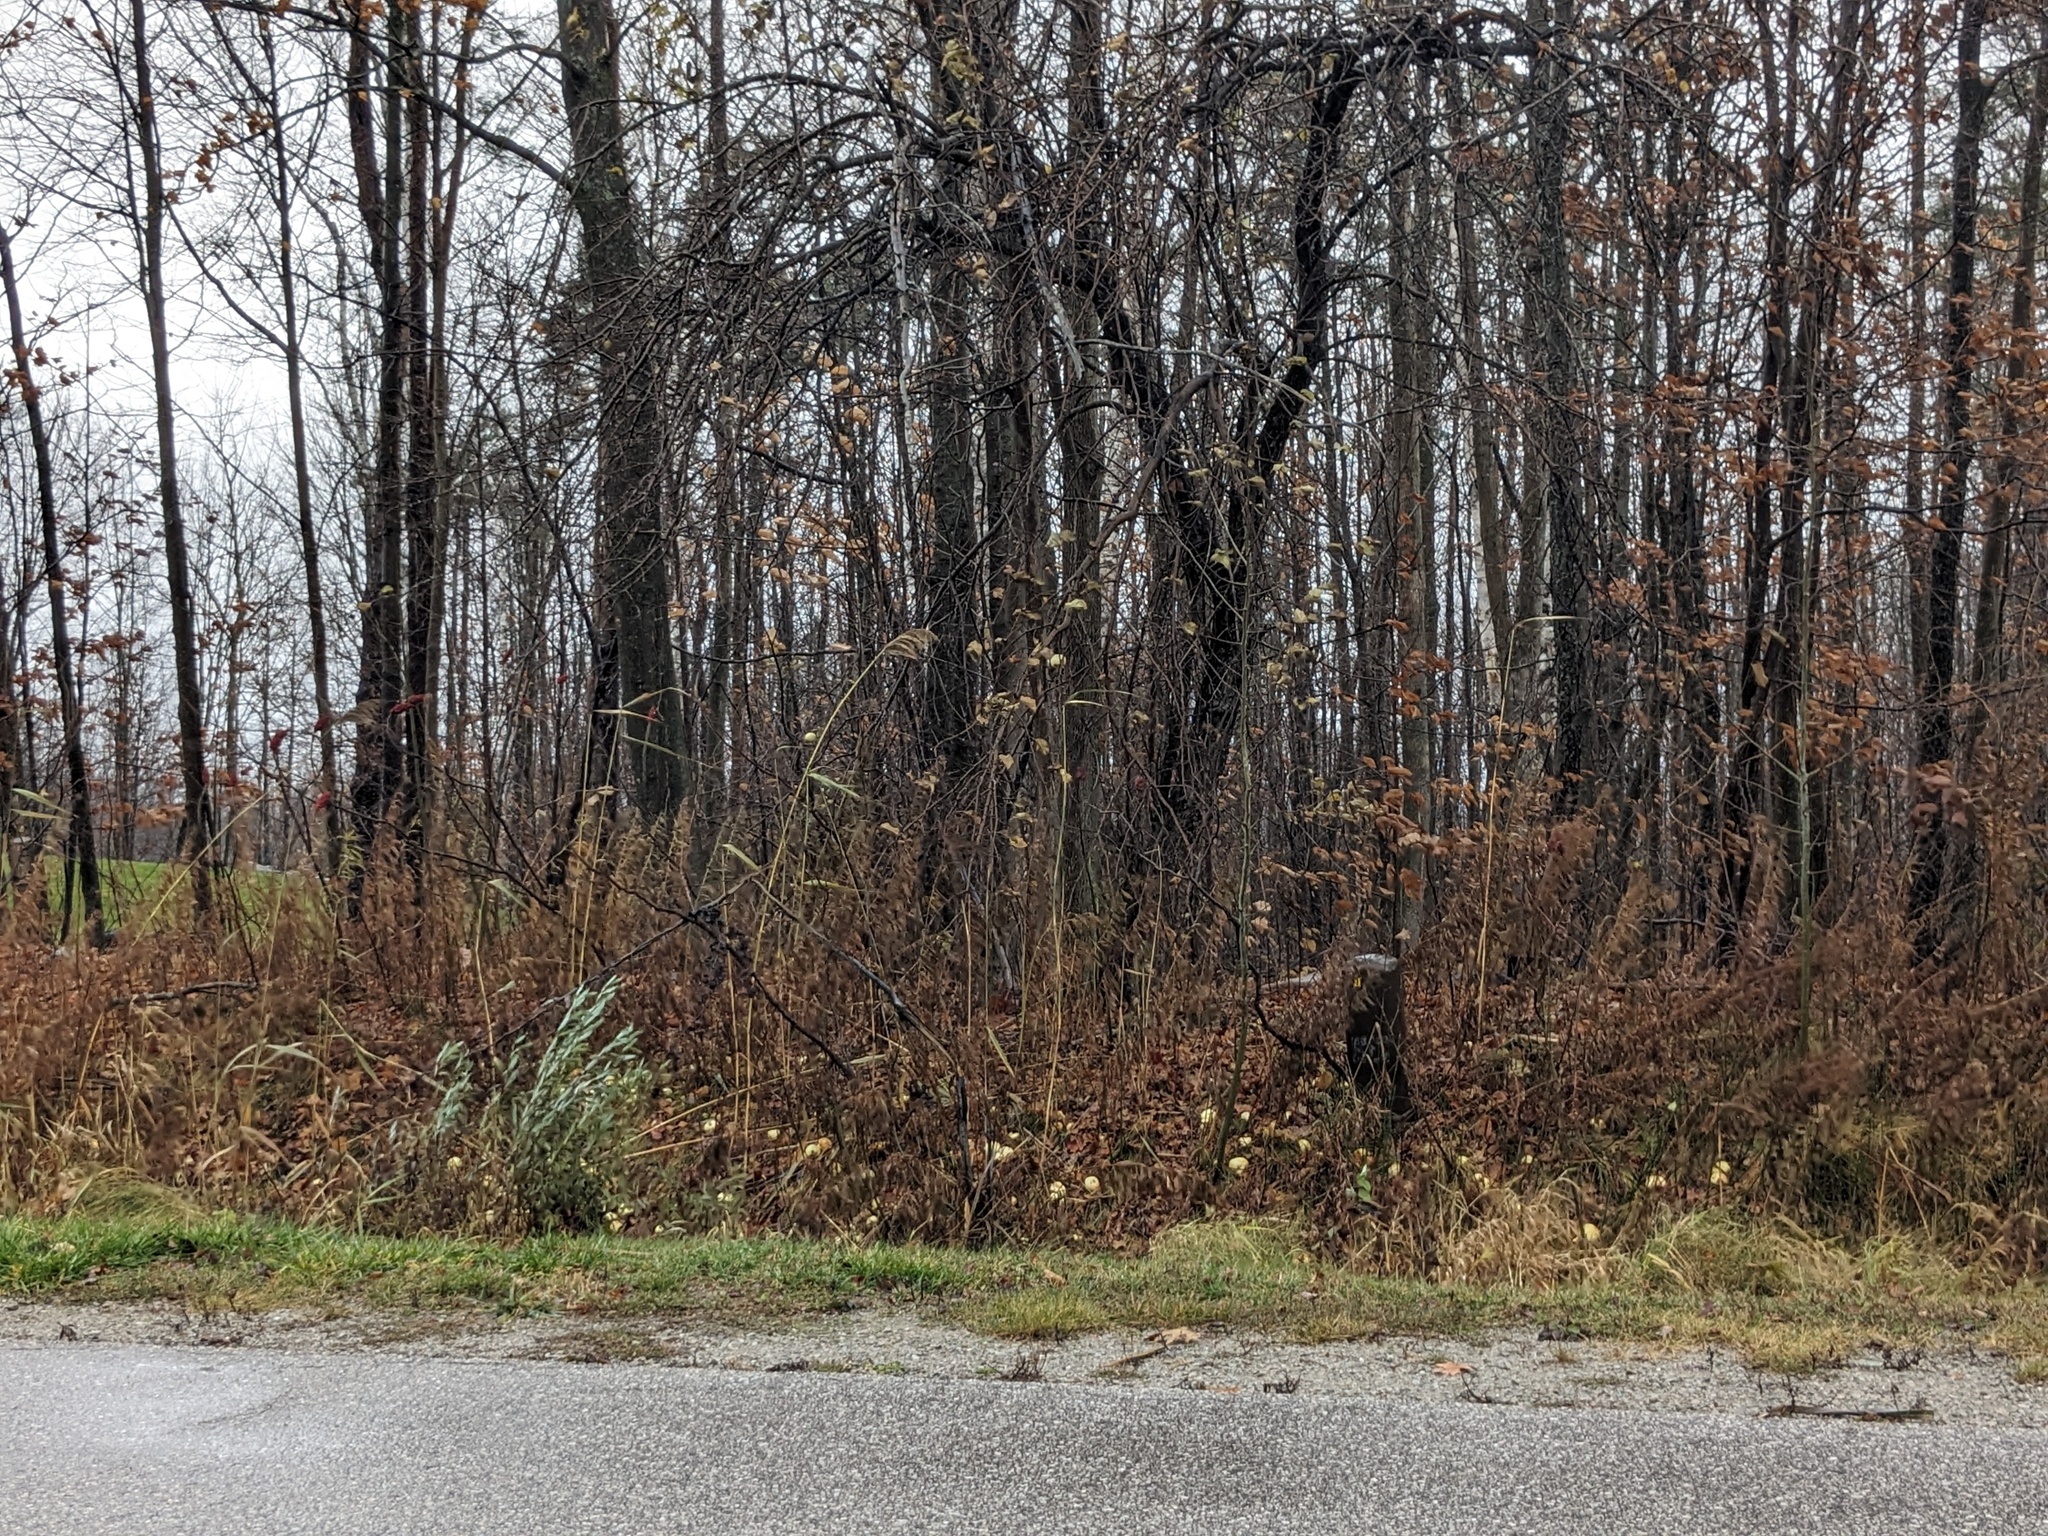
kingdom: Plantae
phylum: Tracheophyta
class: Liliopsida
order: Poales
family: Poaceae
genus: Phragmites
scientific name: Phragmites australis
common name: Common reed
